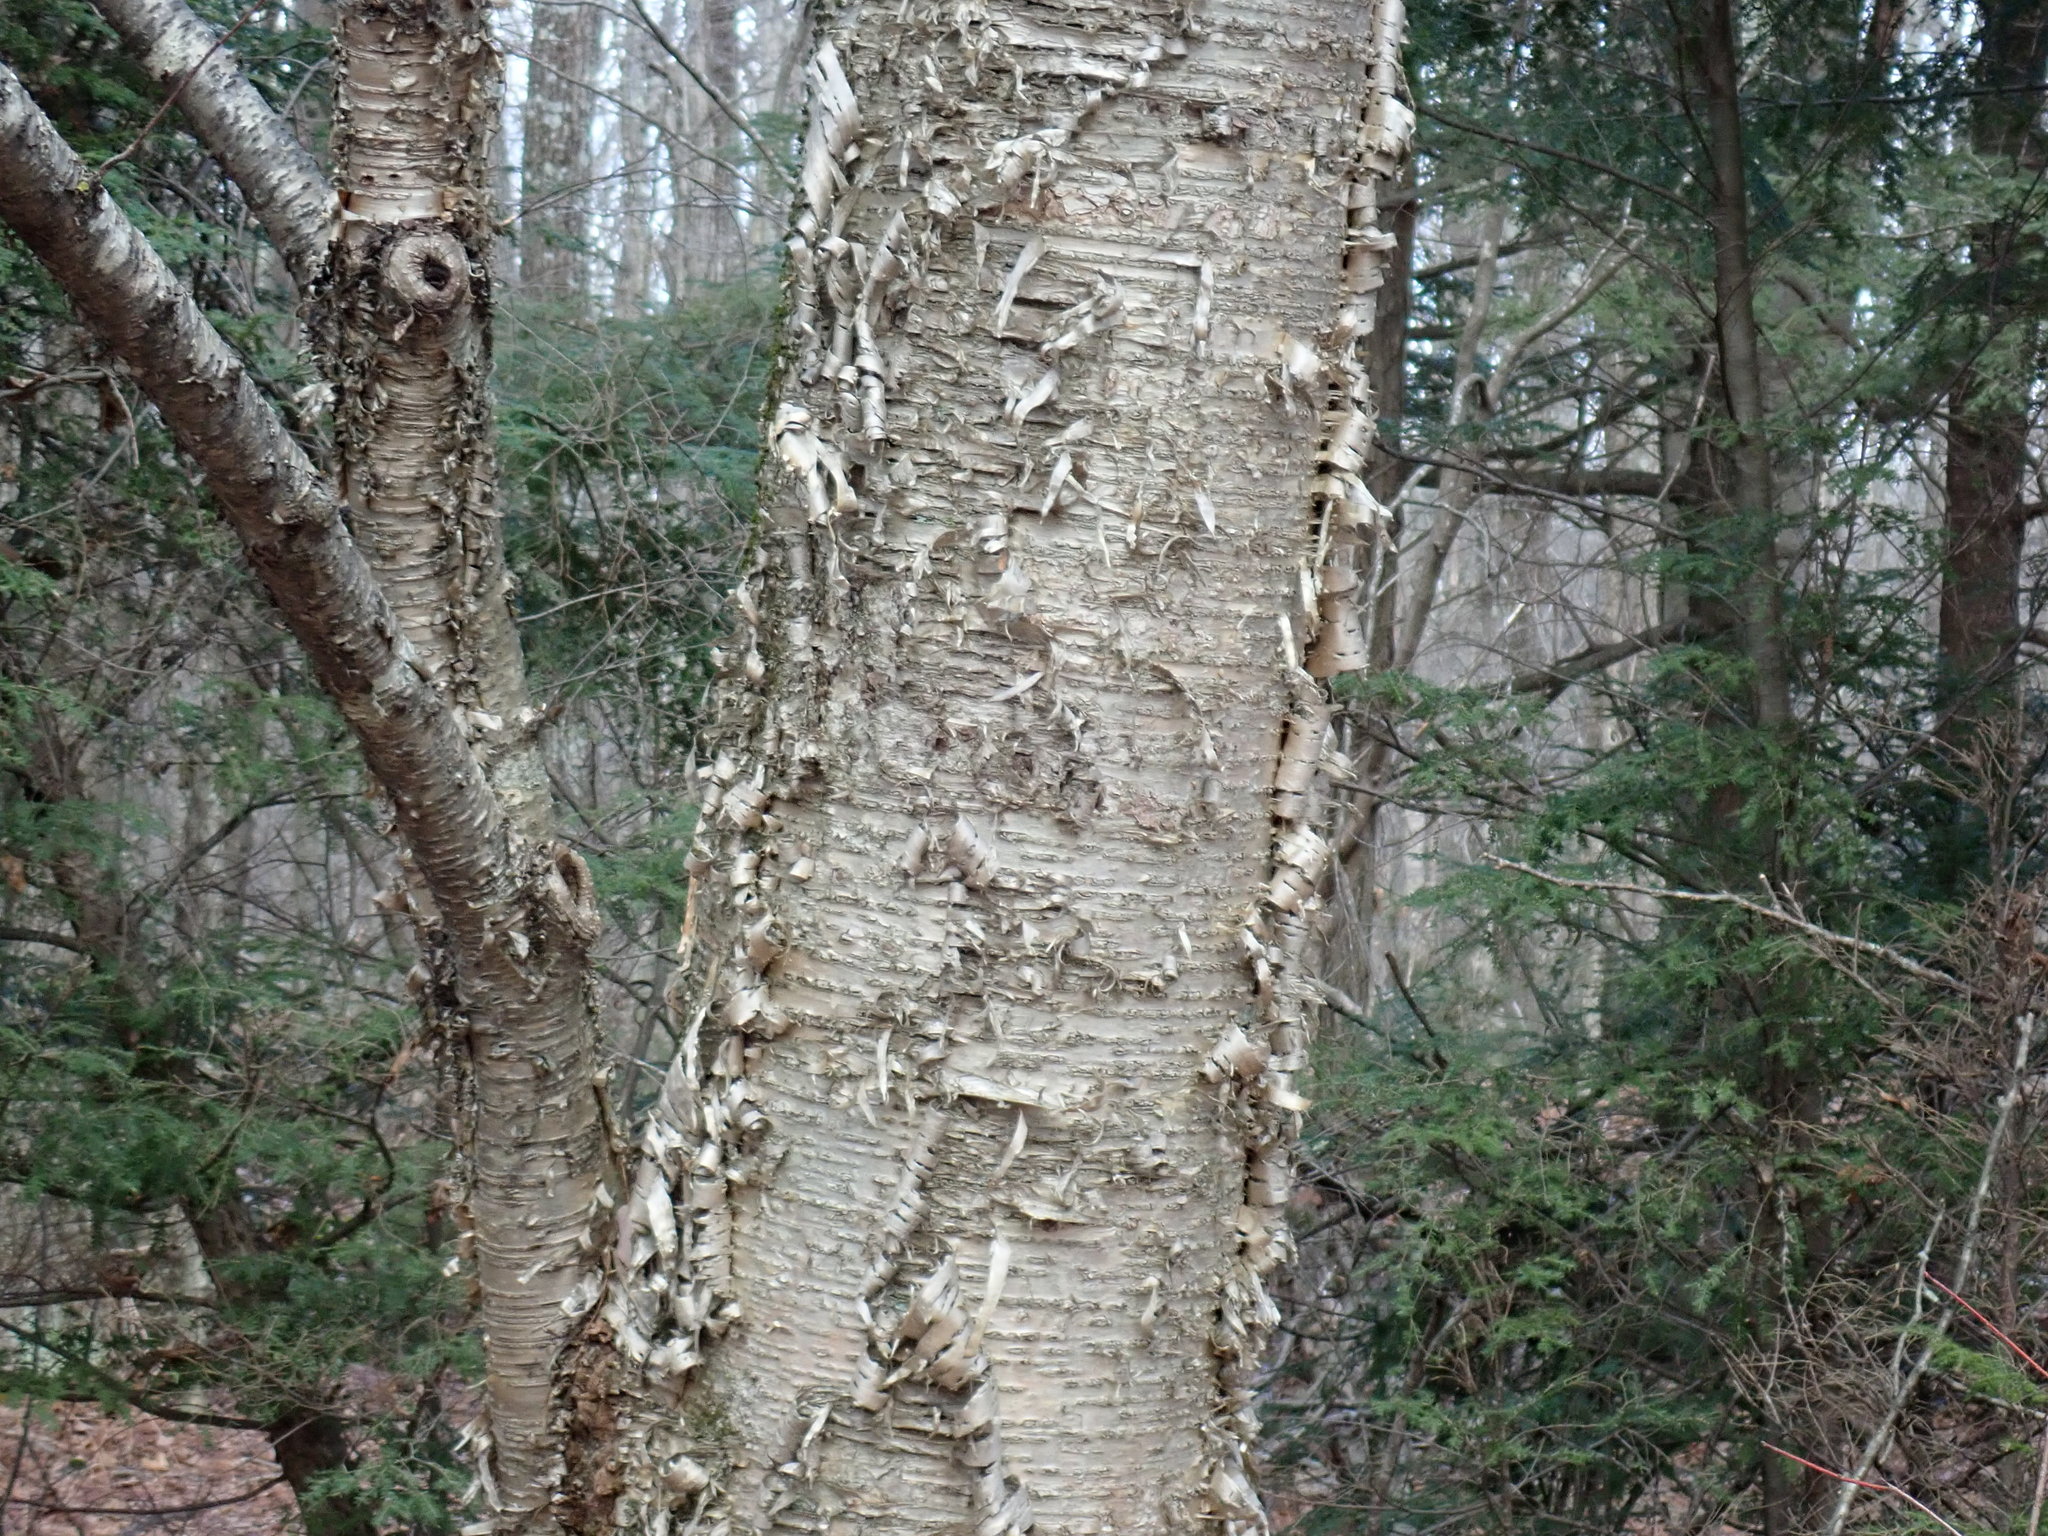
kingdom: Plantae
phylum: Tracheophyta
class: Magnoliopsida
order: Fagales
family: Betulaceae
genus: Betula
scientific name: Betula alleghaniensis
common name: Yellow birch
